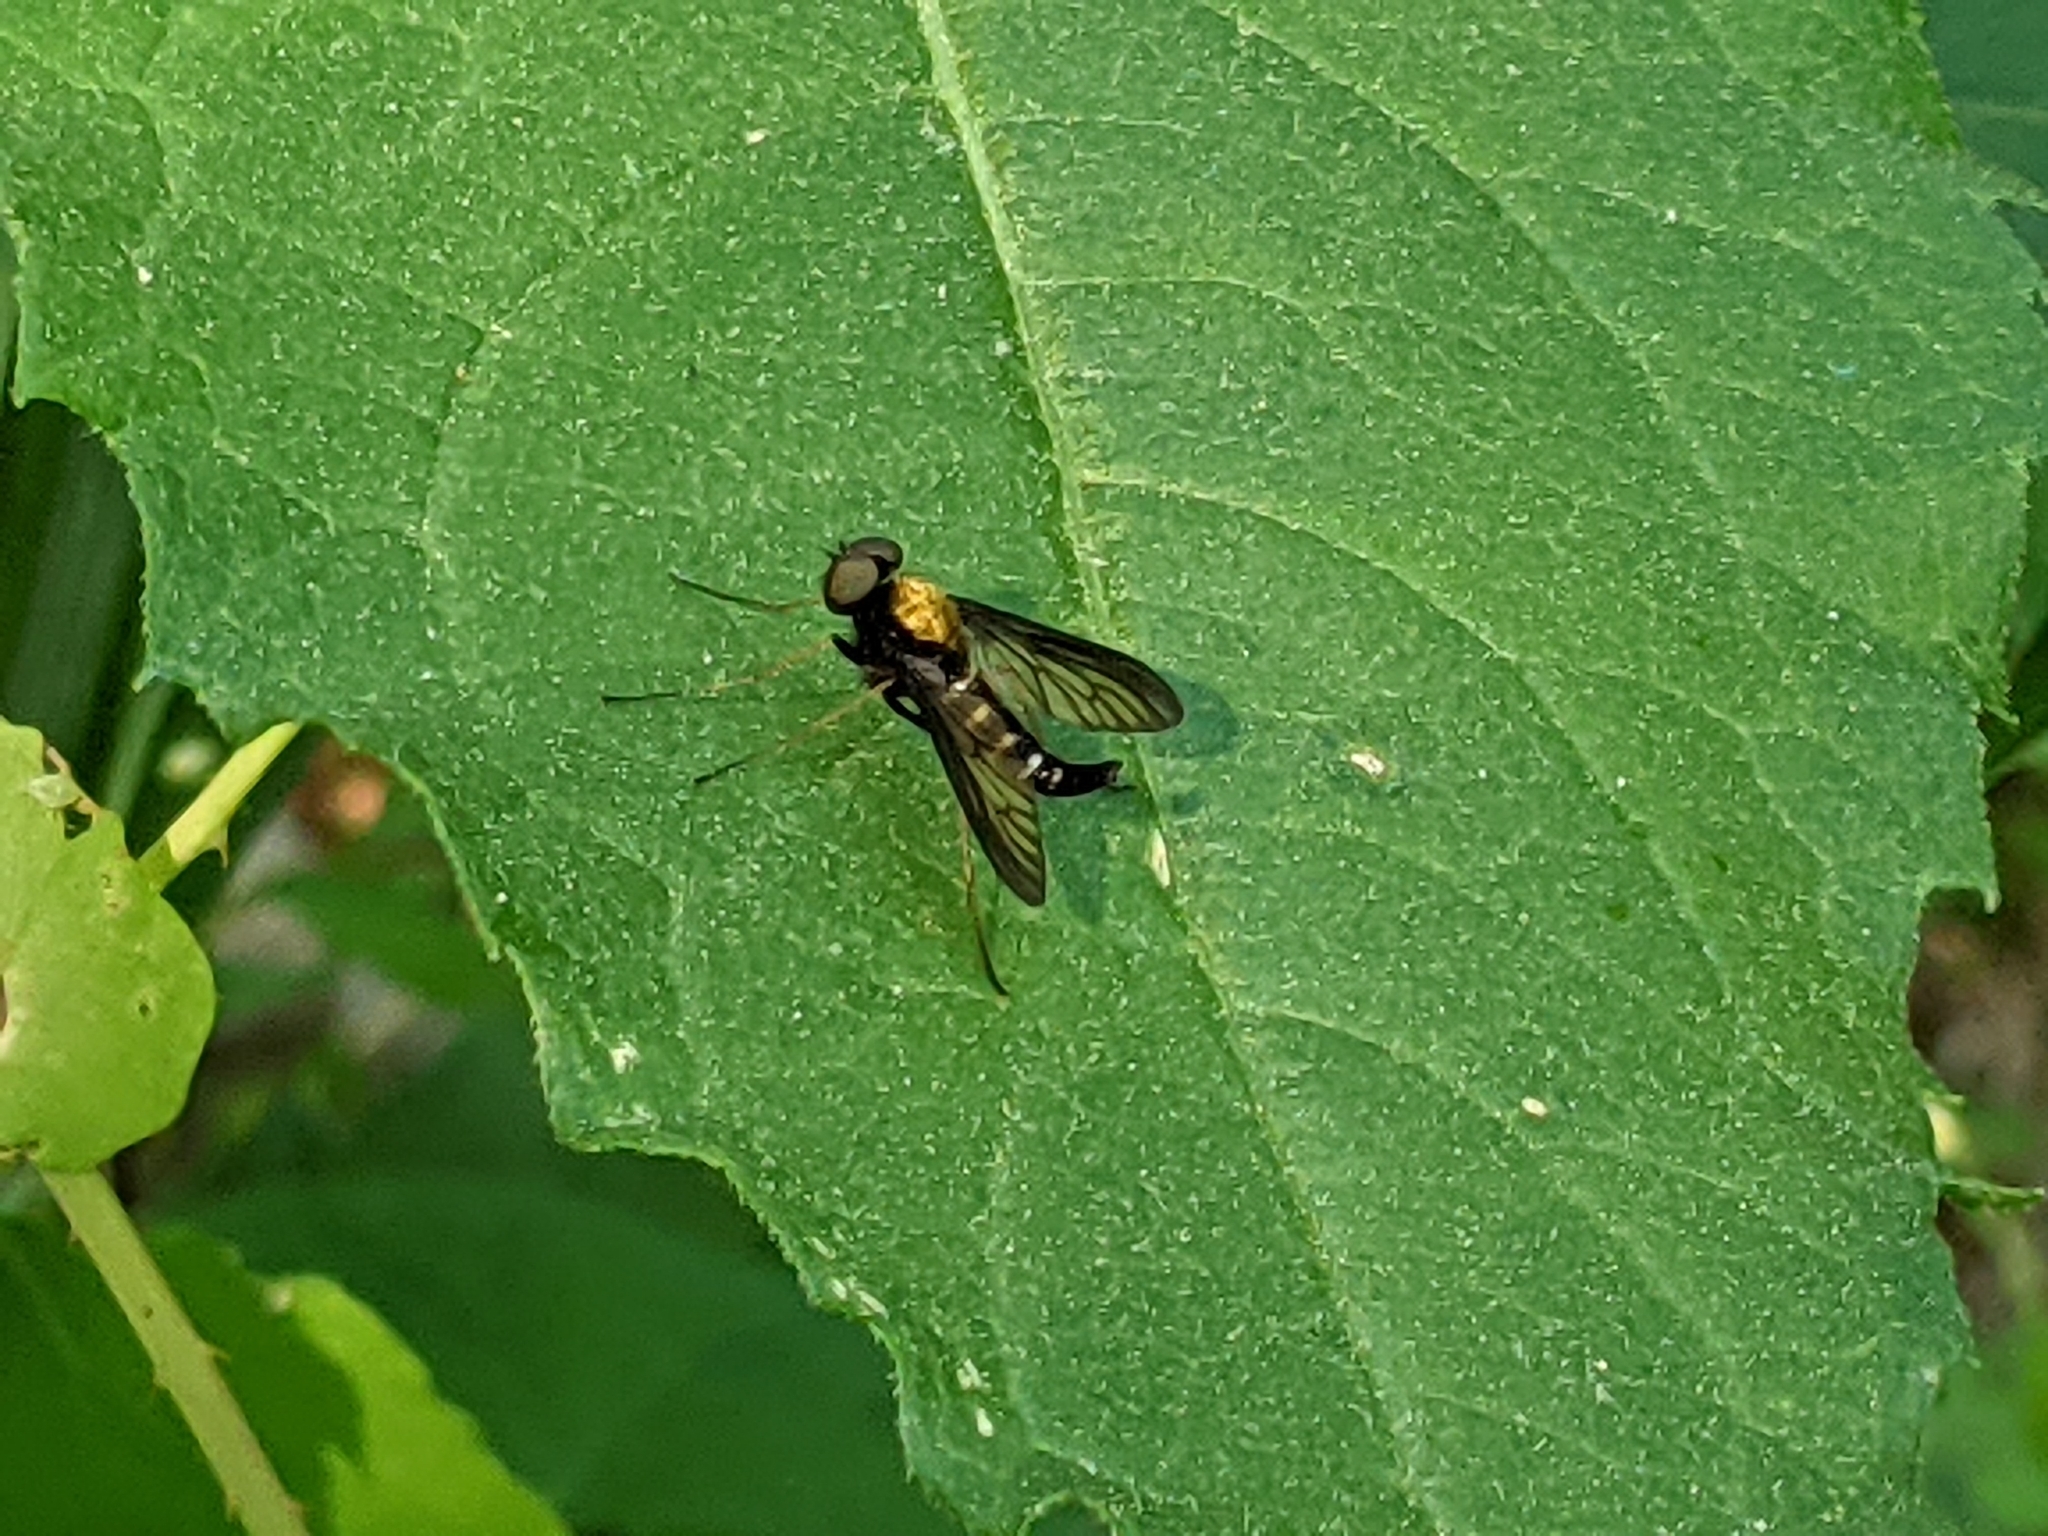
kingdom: Animalia
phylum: Arthropoda
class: Insecta
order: Diptera
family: Rhagionidae
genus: Chrysopilus
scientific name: Chrysopilus thoracicus
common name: Golden-backed snipe fly
